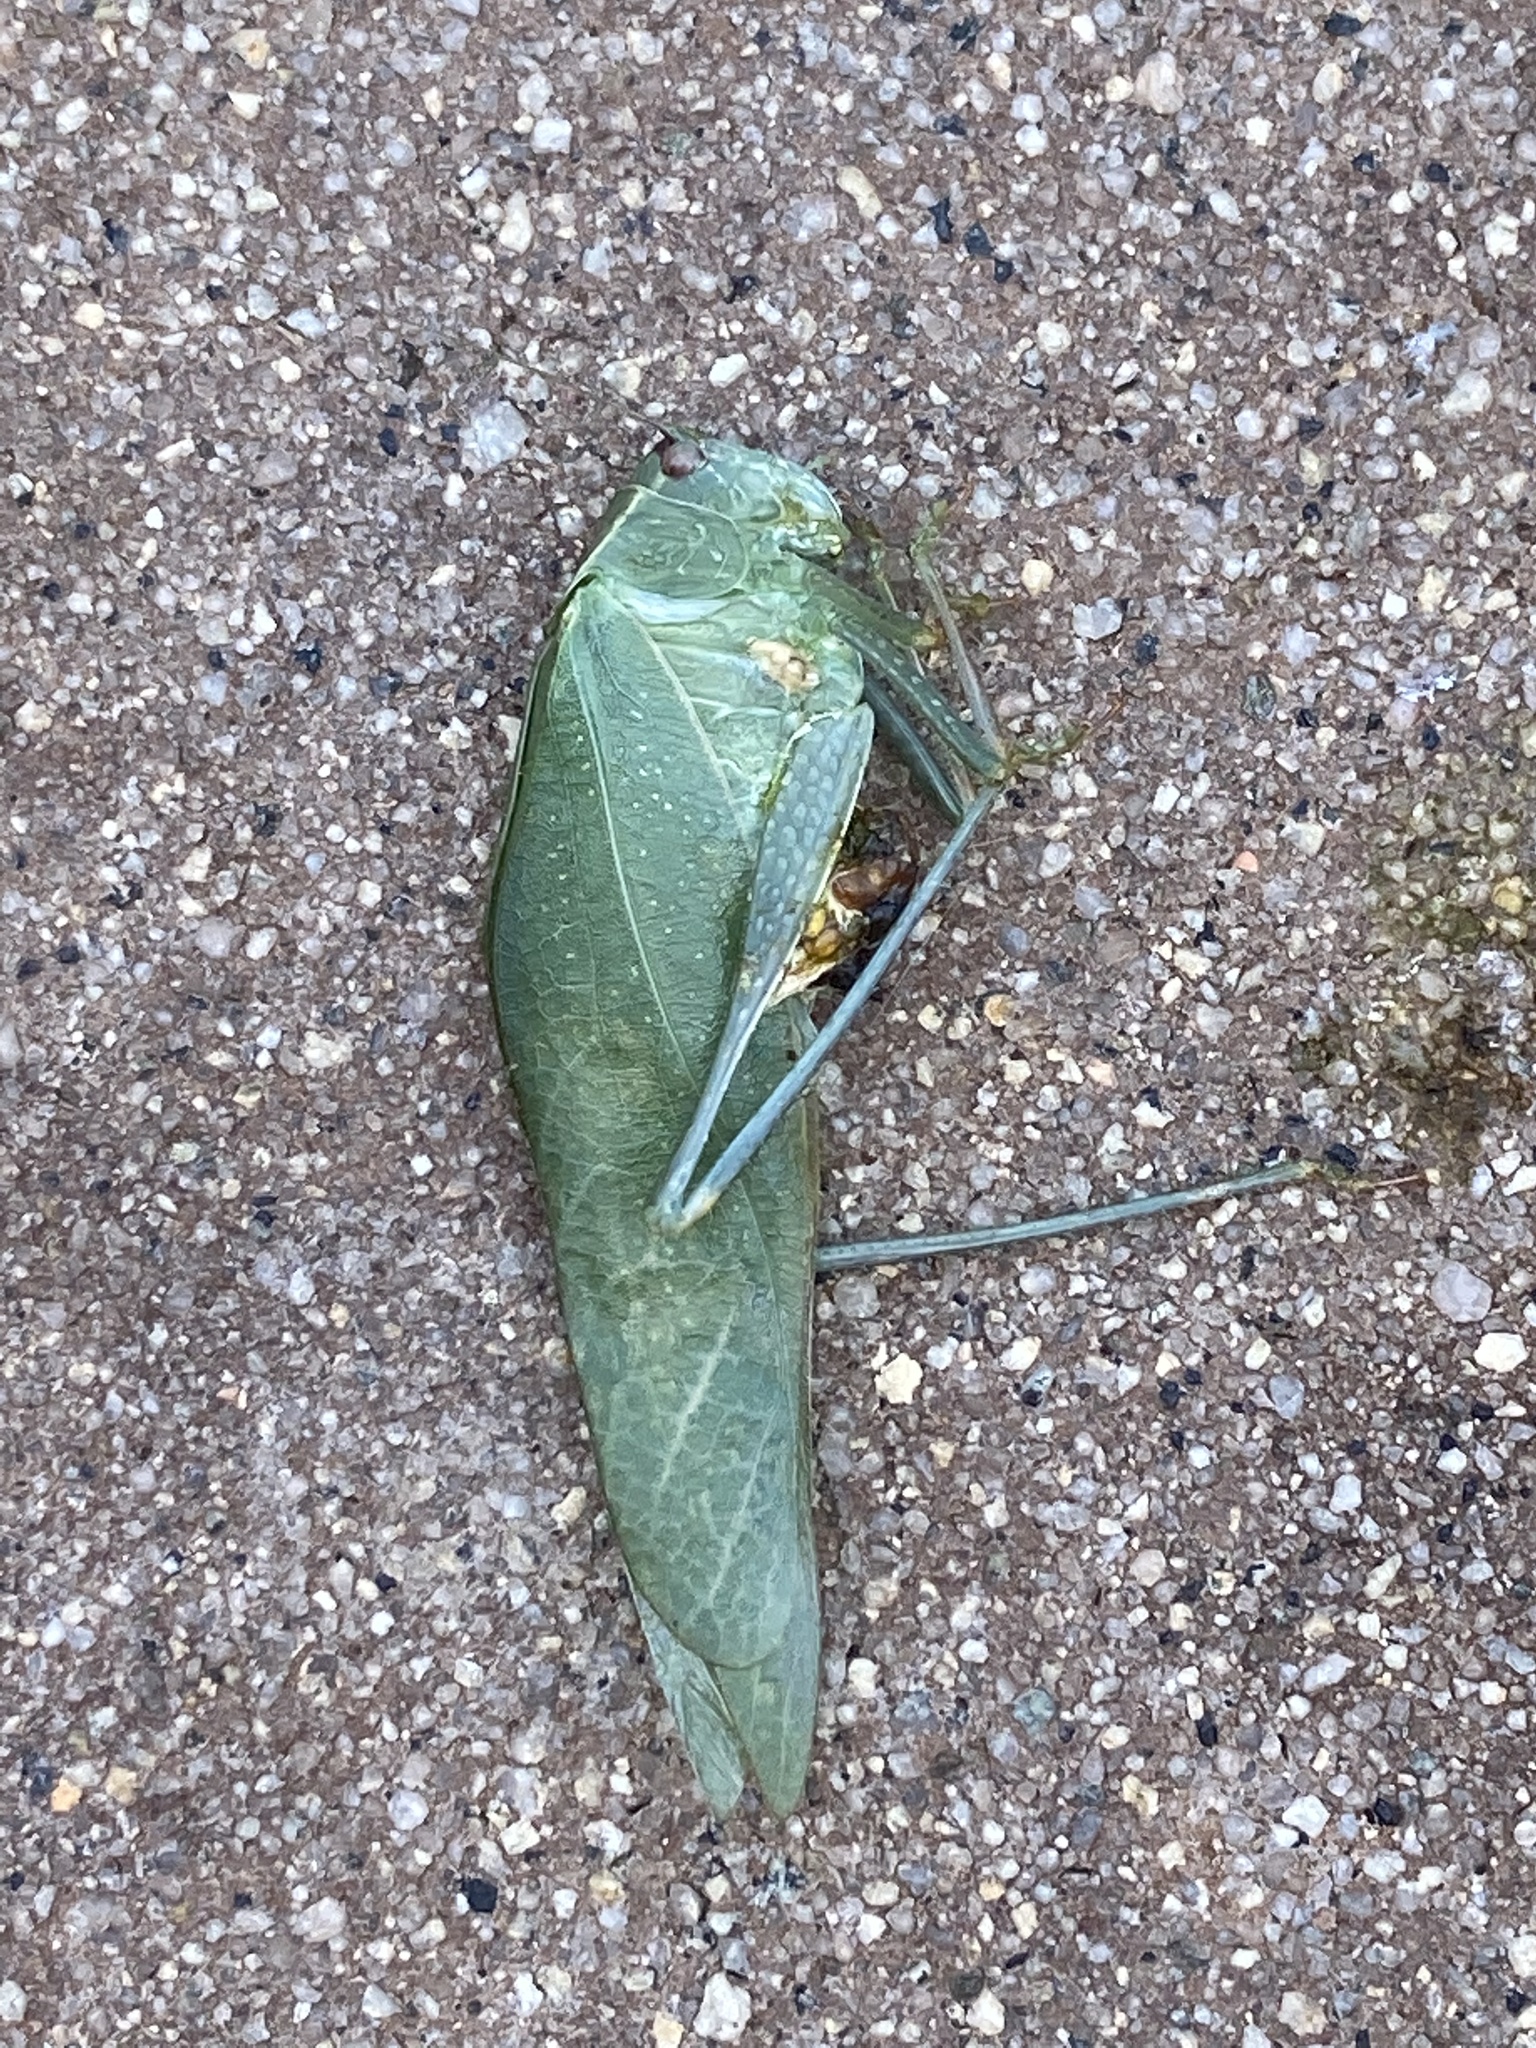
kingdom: Animalia
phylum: Arthropoda
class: Insecta
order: Orthoptera
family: Tettigoniidae
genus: Microcentrum
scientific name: Microcentrum
